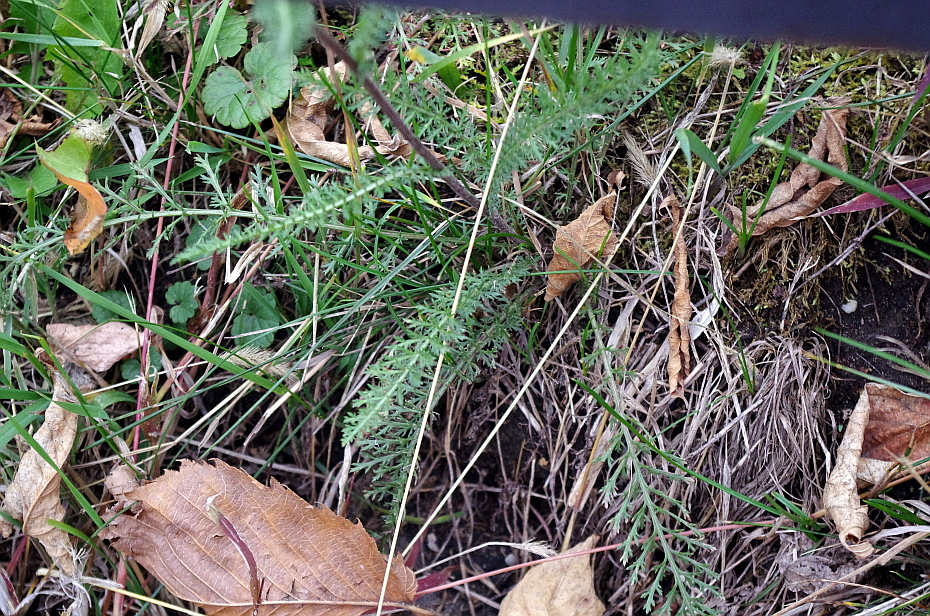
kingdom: Plantae
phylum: Tracheophyta
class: Magnoliopsida
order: Asterales
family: Asteraceae
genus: Achillea
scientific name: Achillea millefolium
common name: Yarrow
